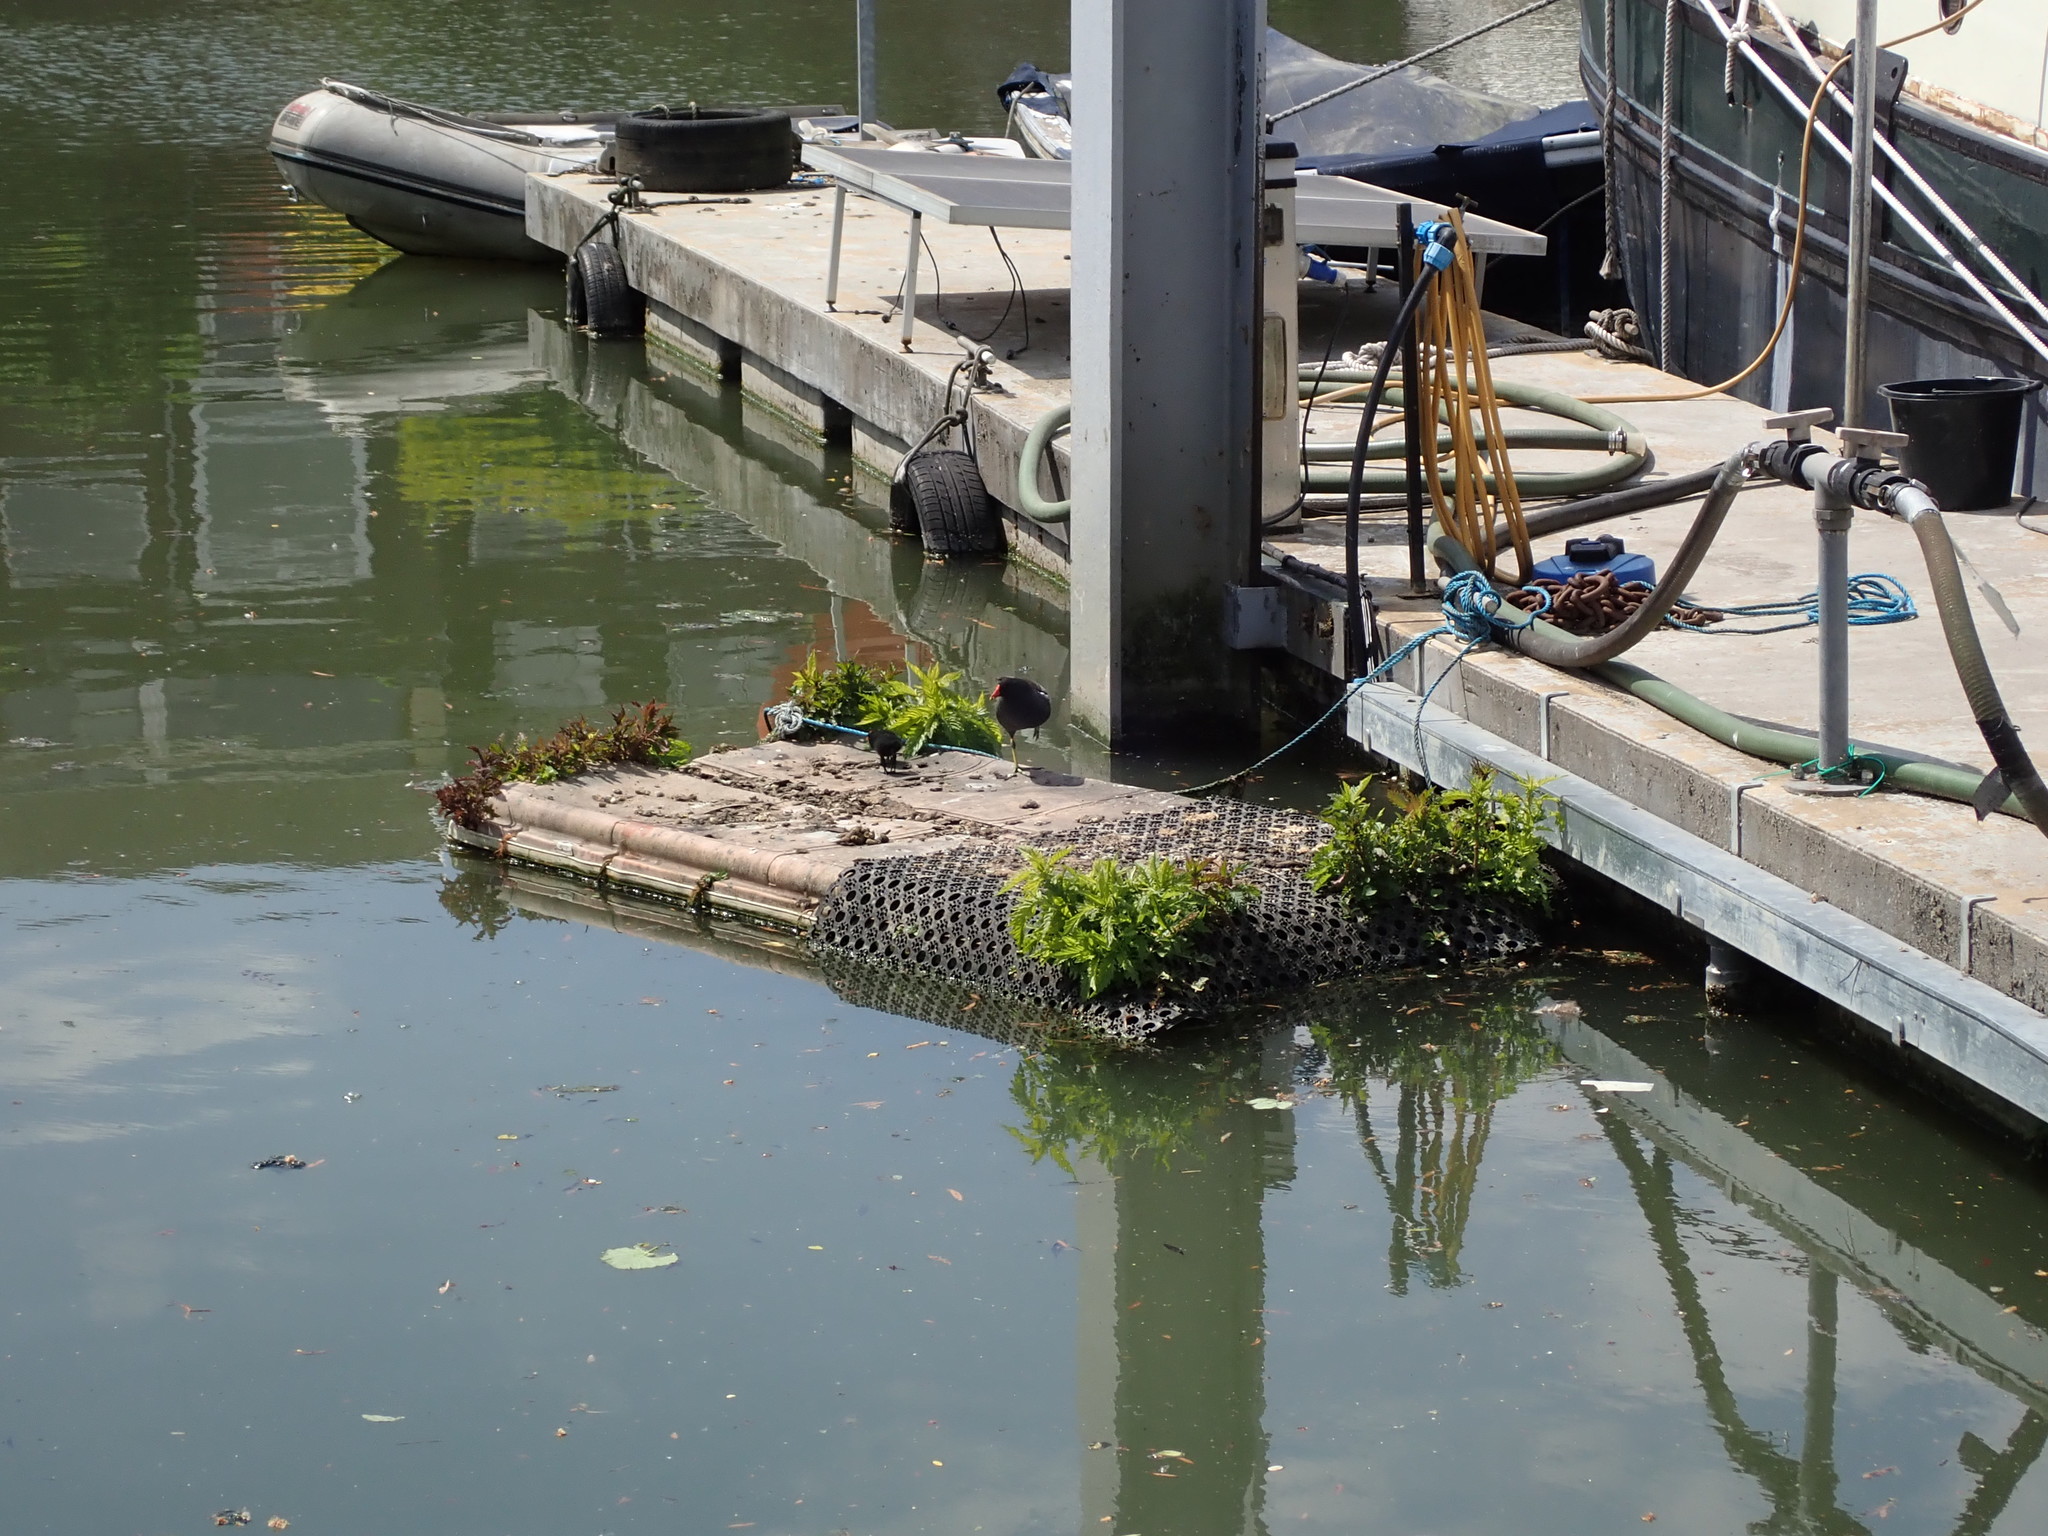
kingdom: Animalia
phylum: Chordata
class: Aves
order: Gruiformes
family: Rallidae
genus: Gallinula
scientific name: Gallinula chloropus
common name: Common moorhen
